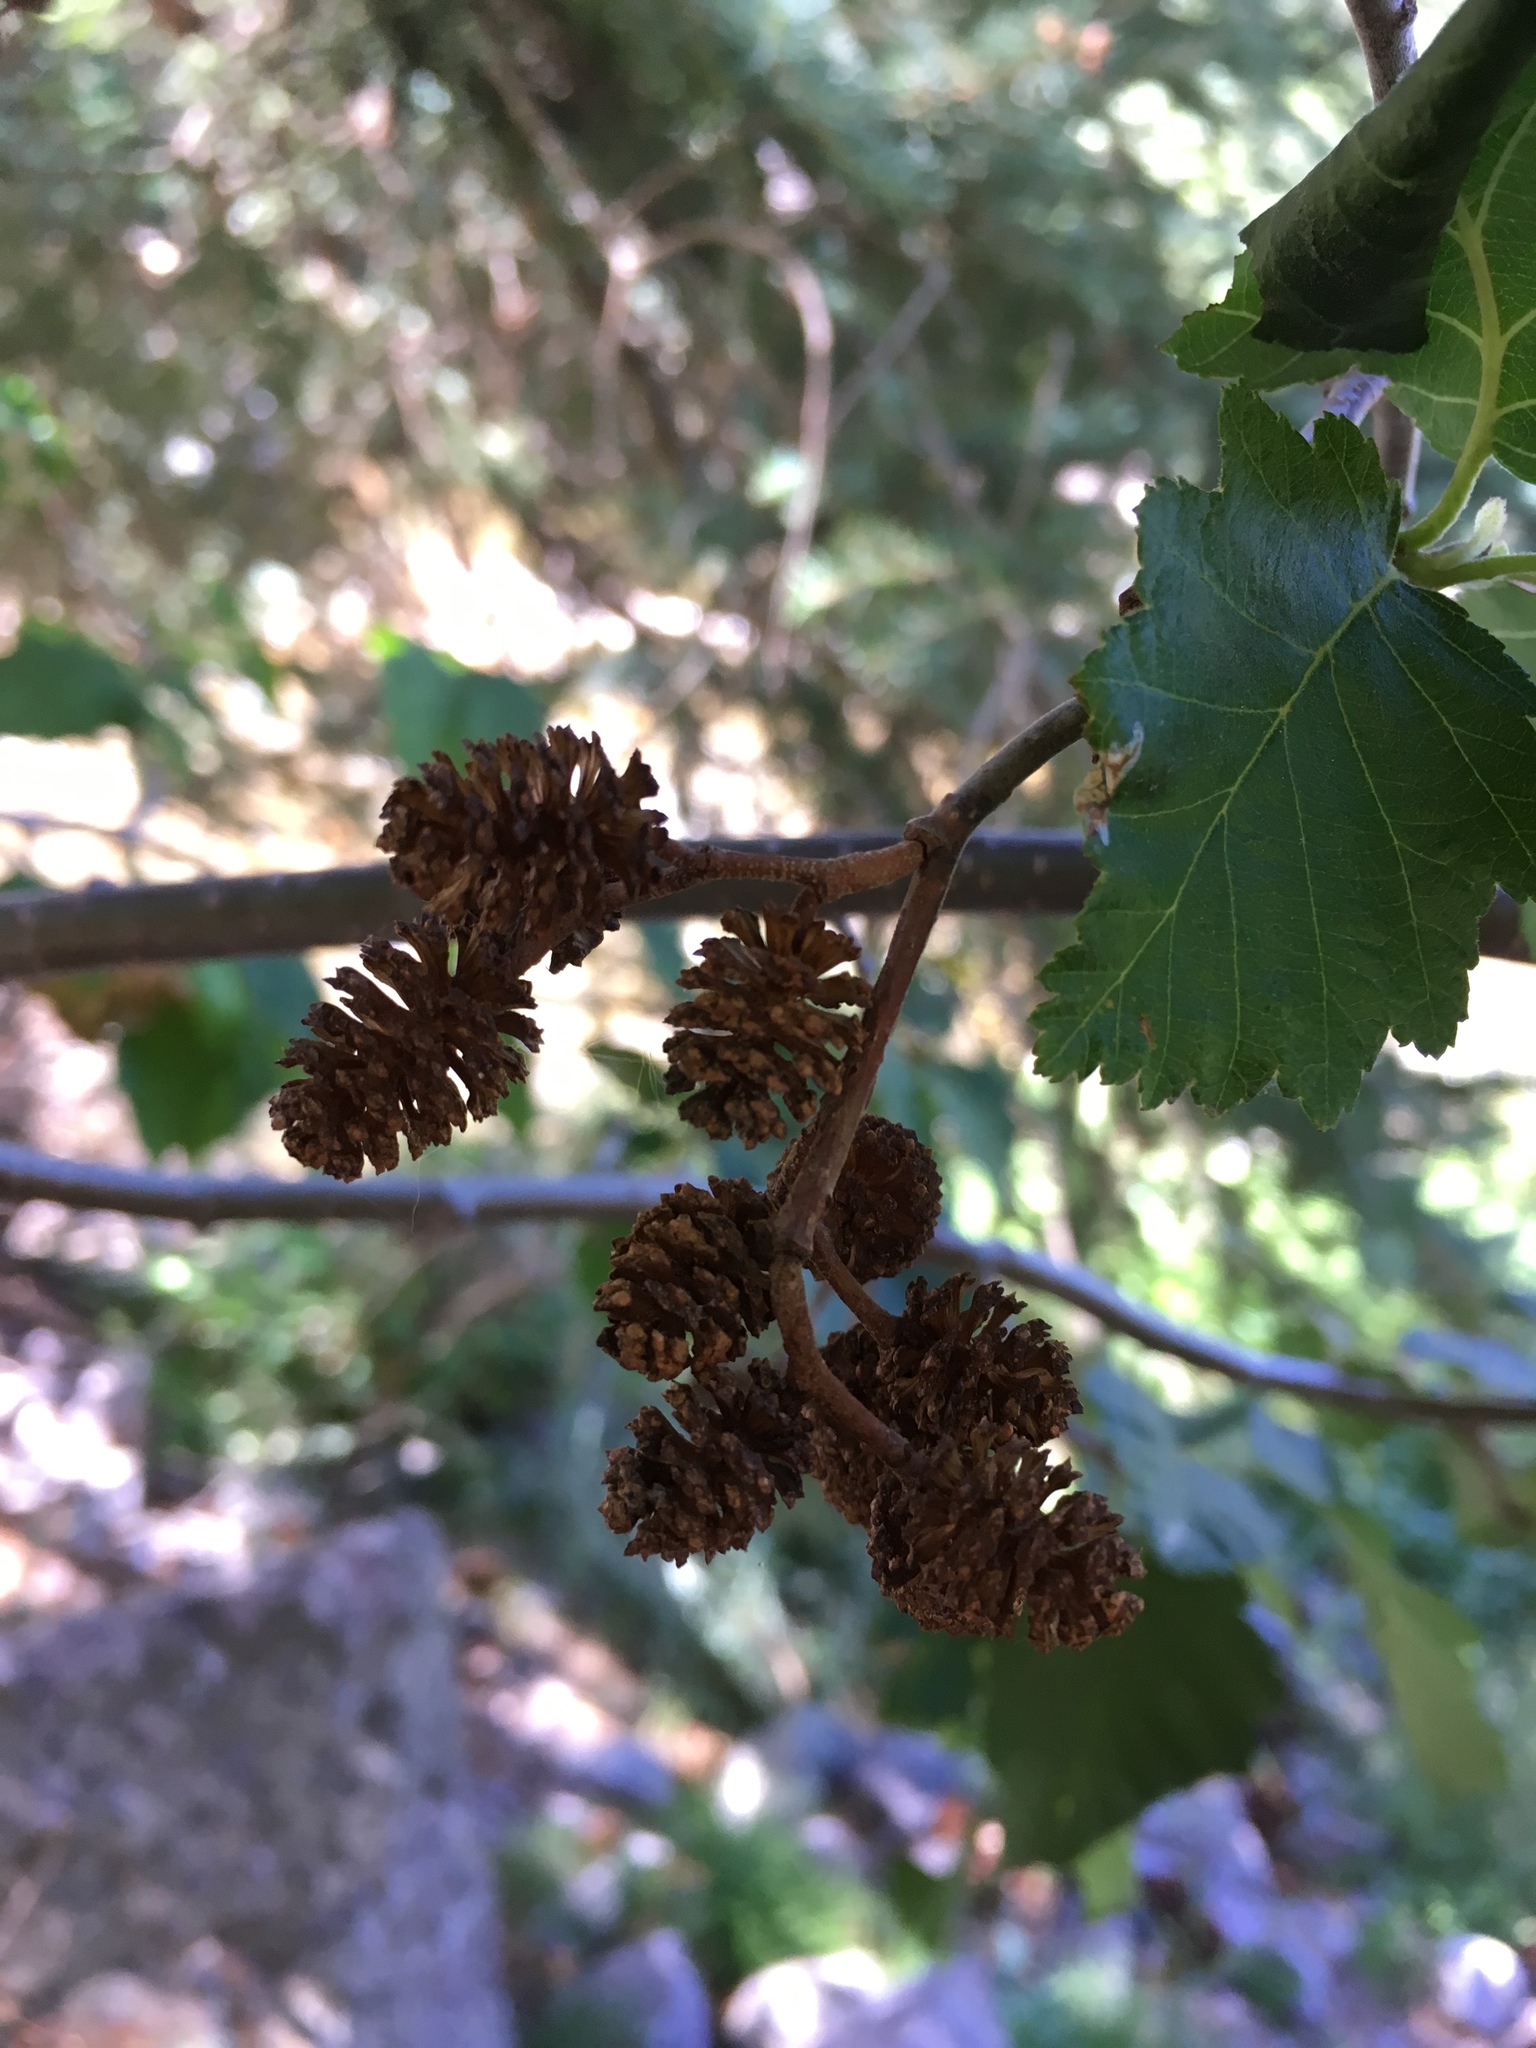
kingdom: Plantae
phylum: Tracheophyta
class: Magnoliopsida
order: Fagales
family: Betulaceae
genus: Alnus
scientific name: Alnus incana
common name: Grey alder
